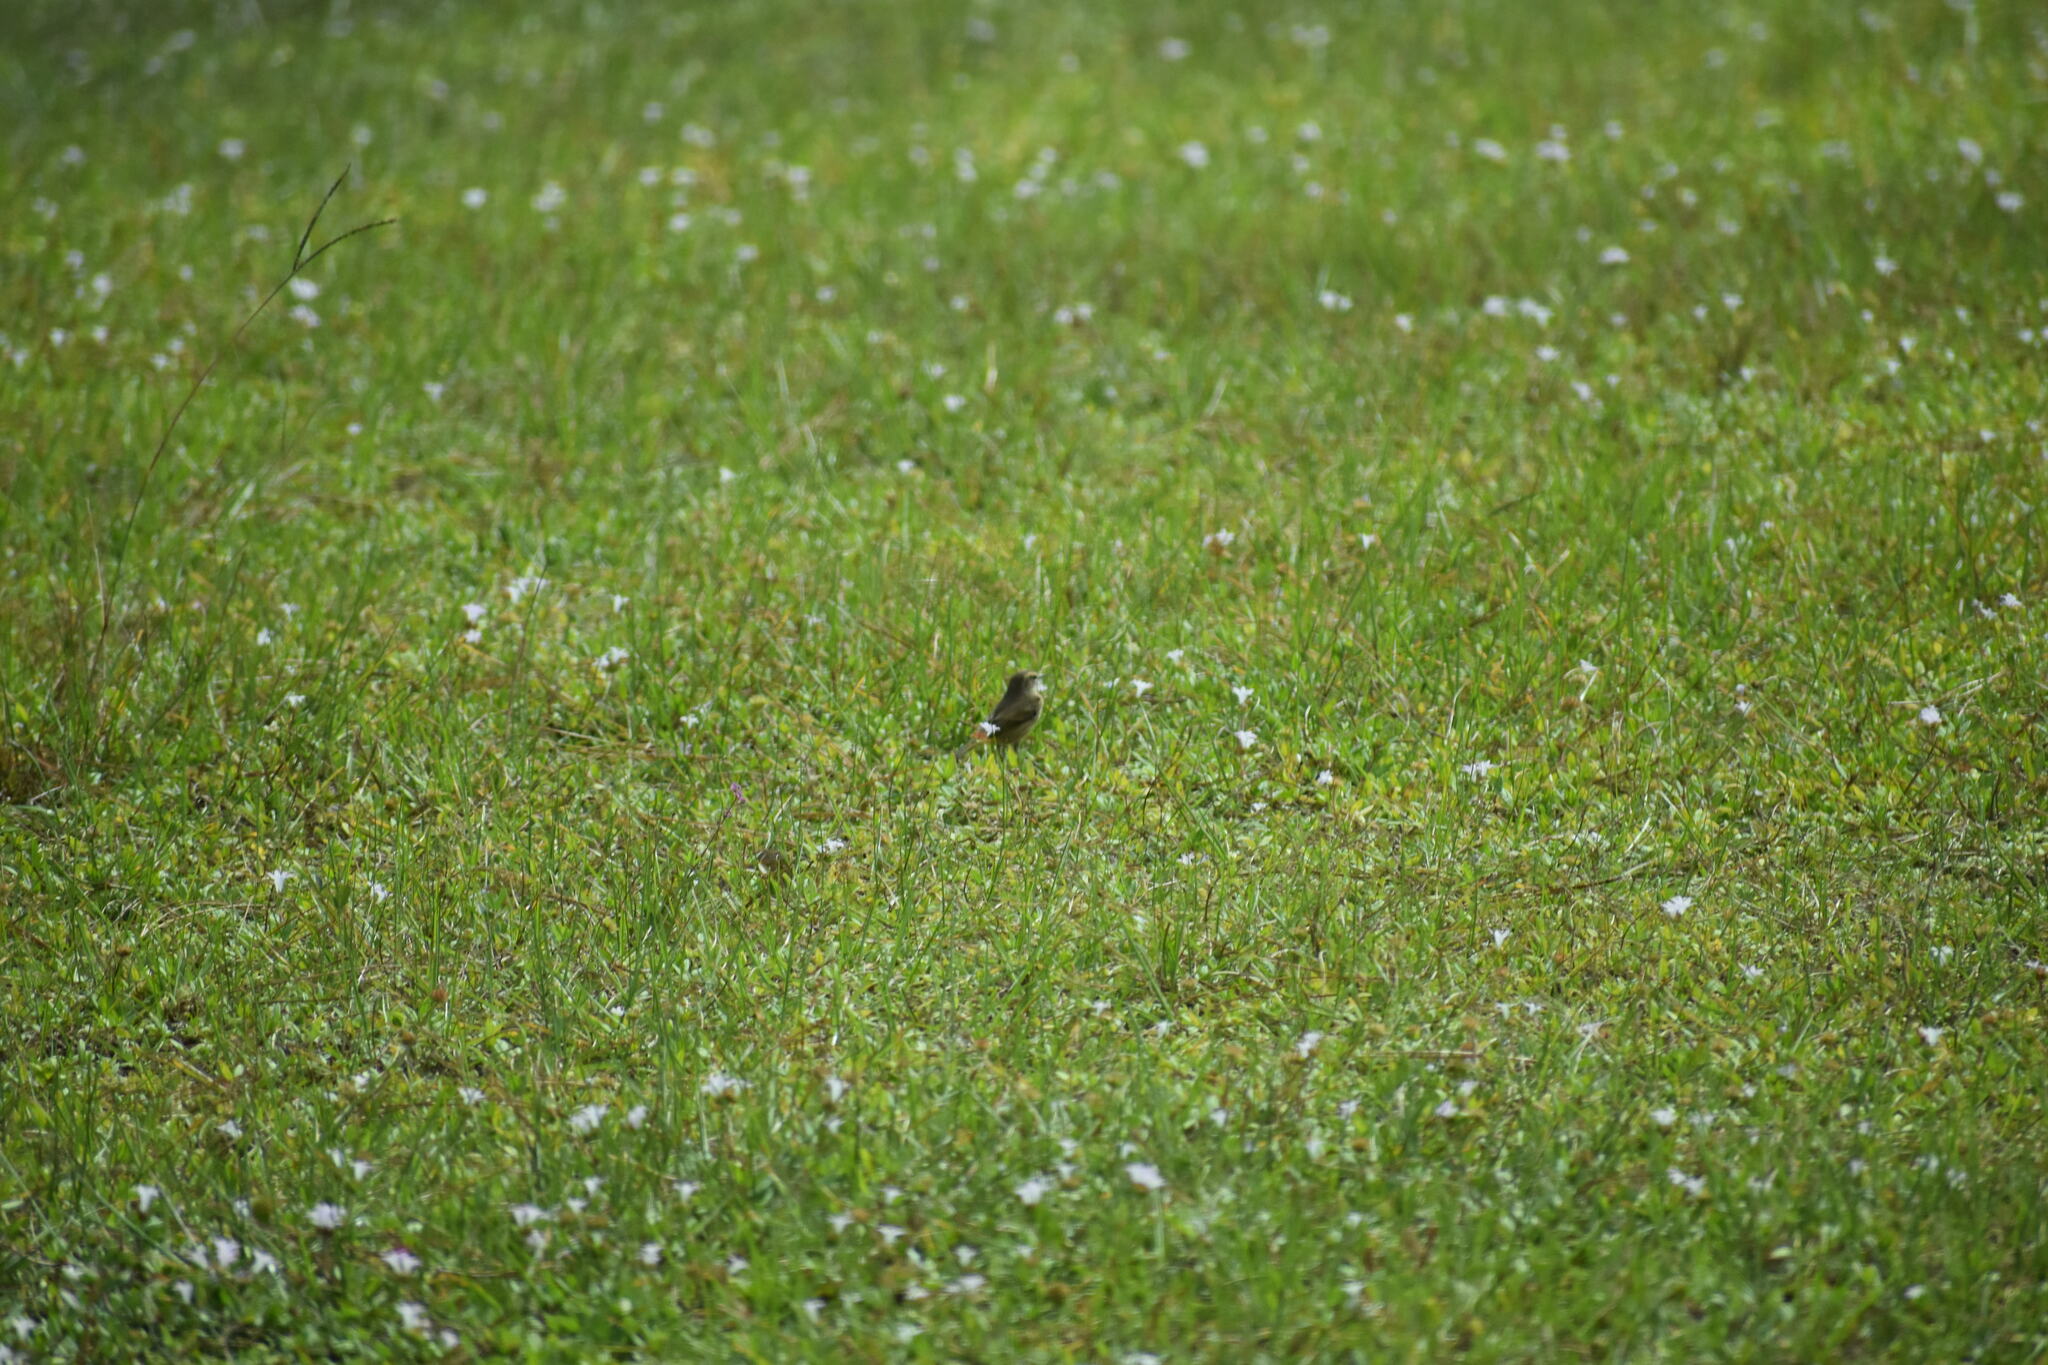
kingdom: Animalia
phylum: Chordata
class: Aves
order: Passeriformes
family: Parulidae
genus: Setophaga
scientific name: Setophaga palmarum
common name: Palm warbler
